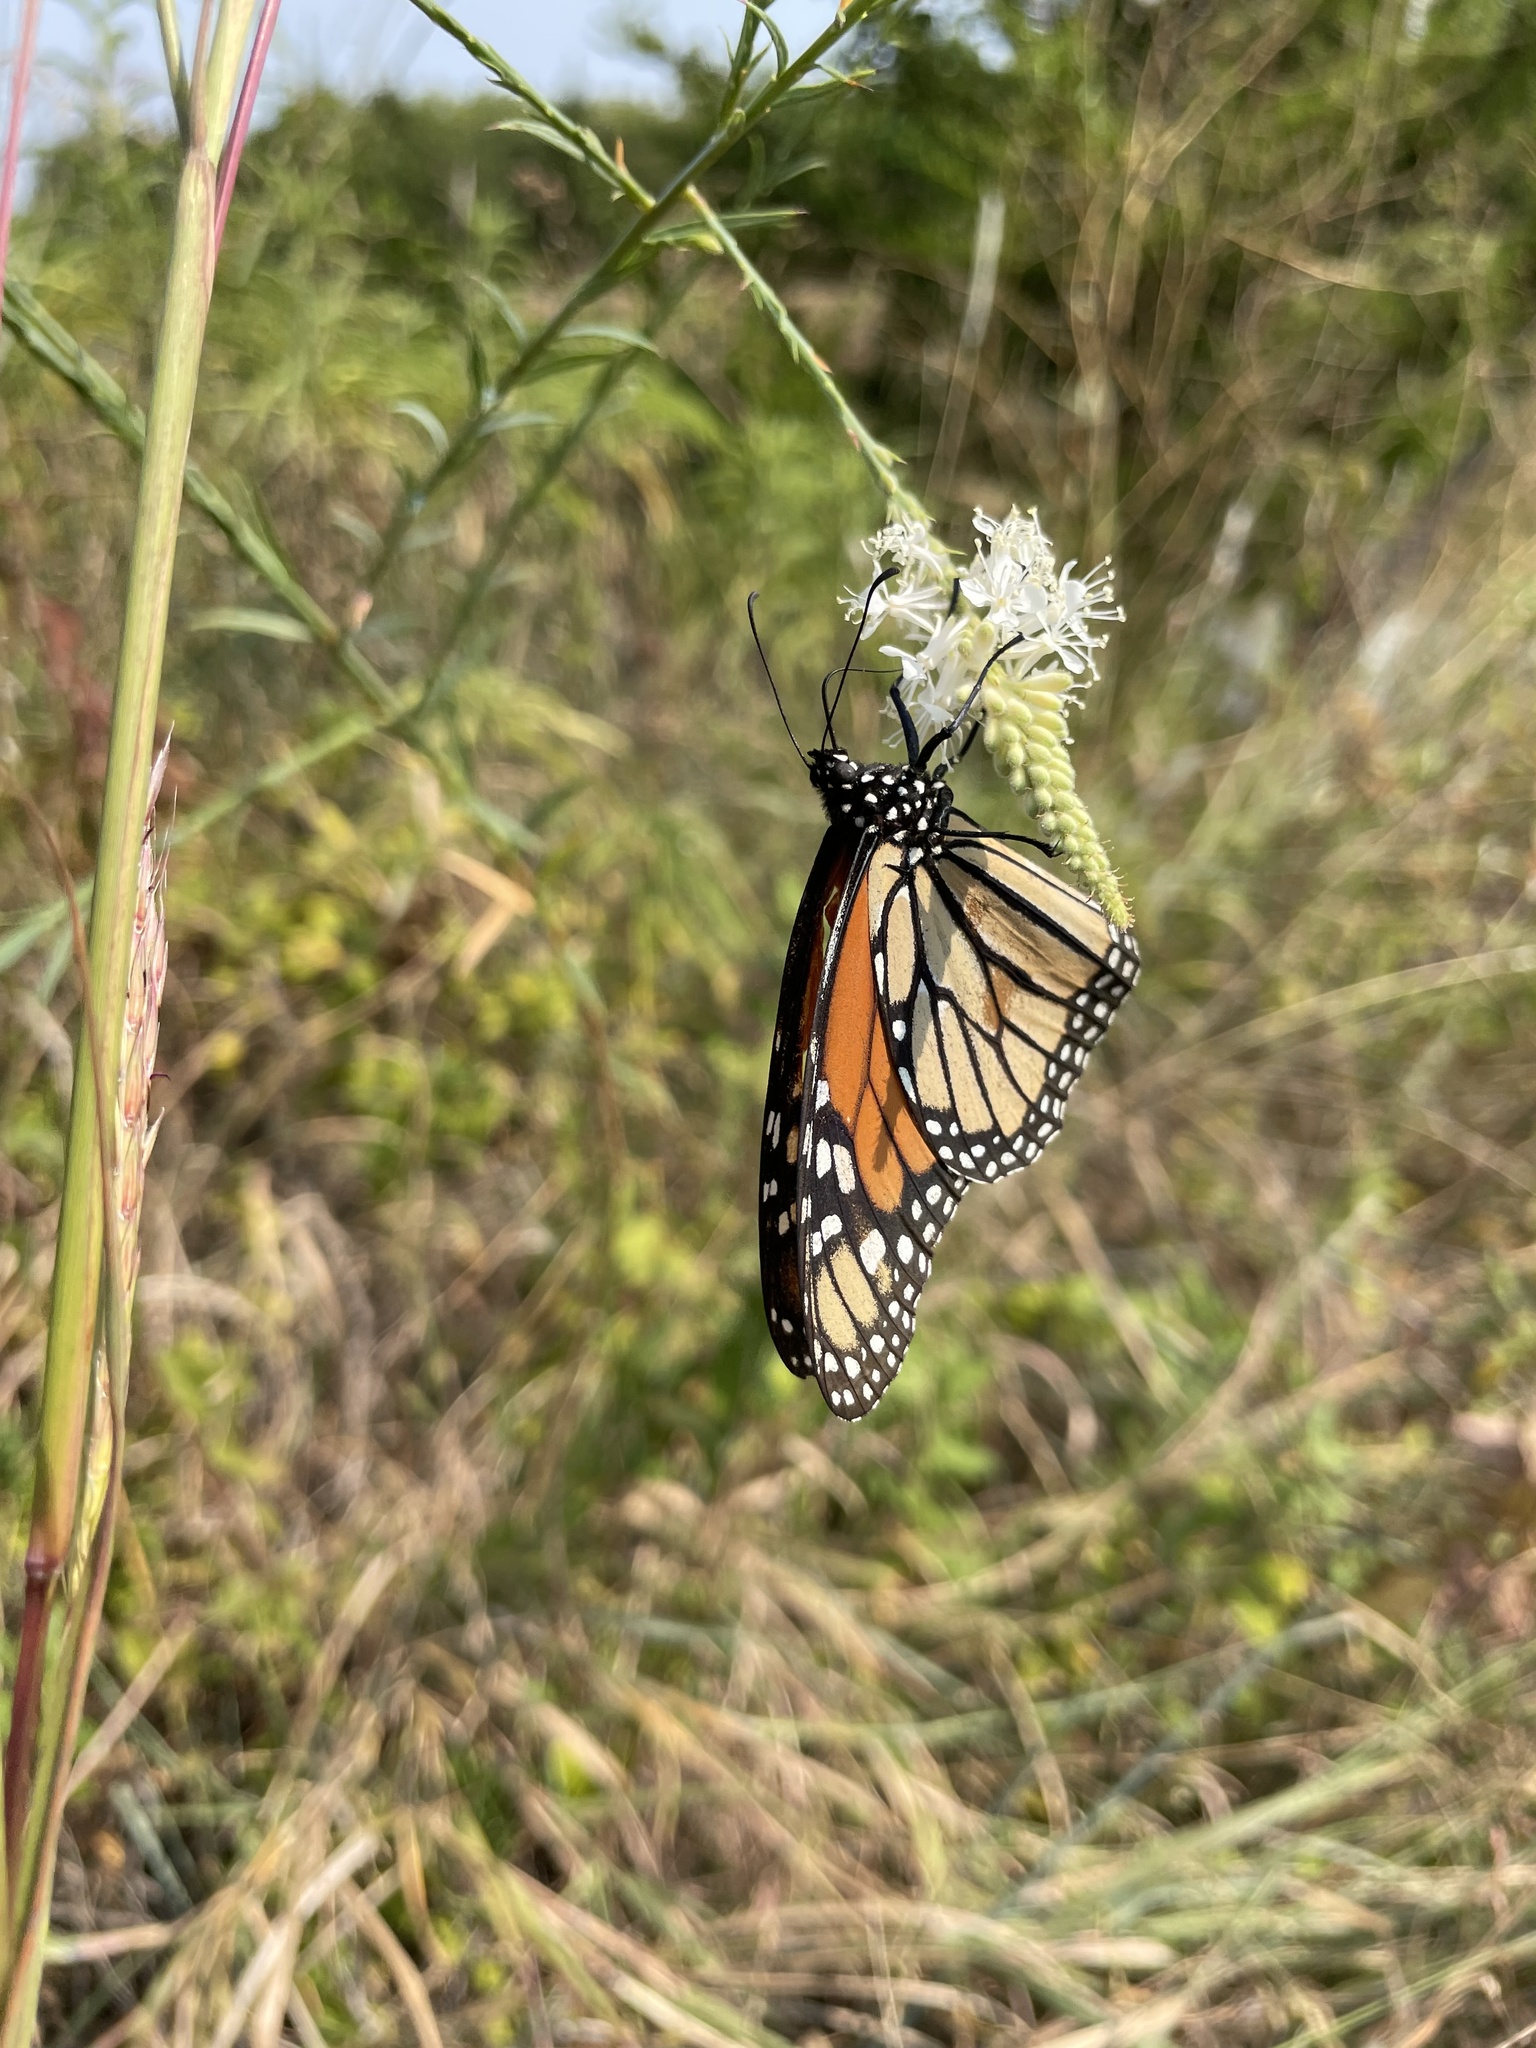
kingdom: Animalia
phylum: Arthropoda
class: Insecta
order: Lepidoptera
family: Nymphalidae
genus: Danaus
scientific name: Danaus plexippus
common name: Monarch
